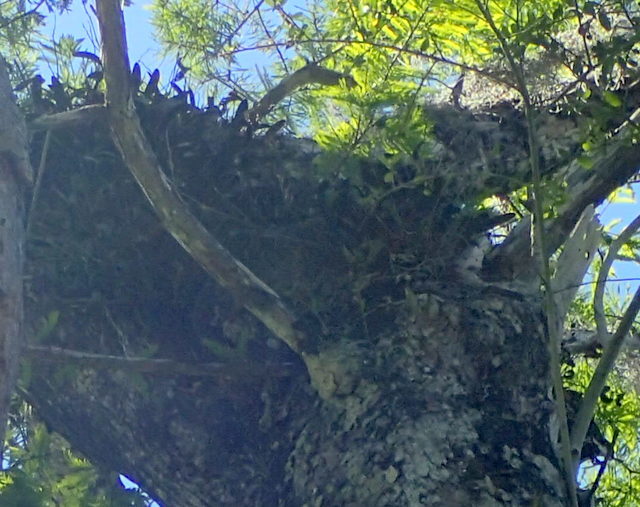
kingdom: Plantae
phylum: Tracheophyta
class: Liliopsida
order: Asparagales
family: Orchidaceae
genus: Epidendrum
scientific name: Epidendrum conopseum
